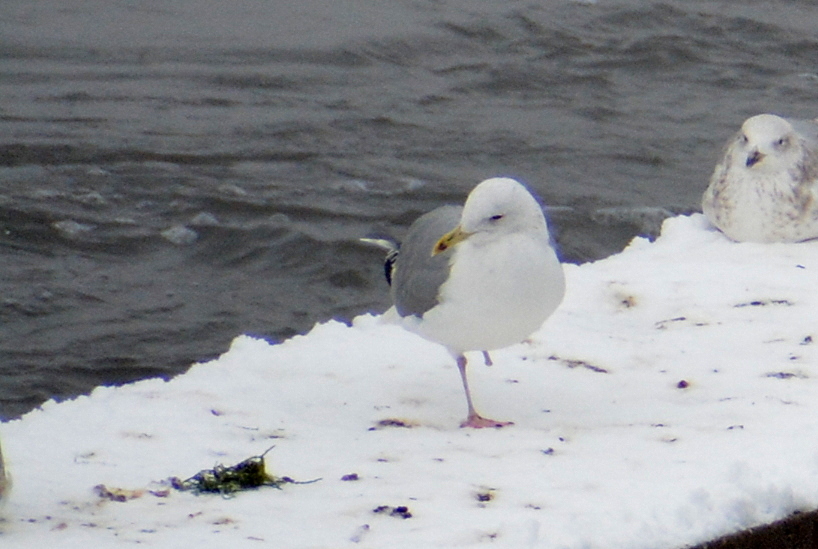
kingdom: Animalia
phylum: Chordata
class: Aves
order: Charadriiformes
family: Laridae
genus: Larus
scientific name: Larus cachinnans
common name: Caspian gull
